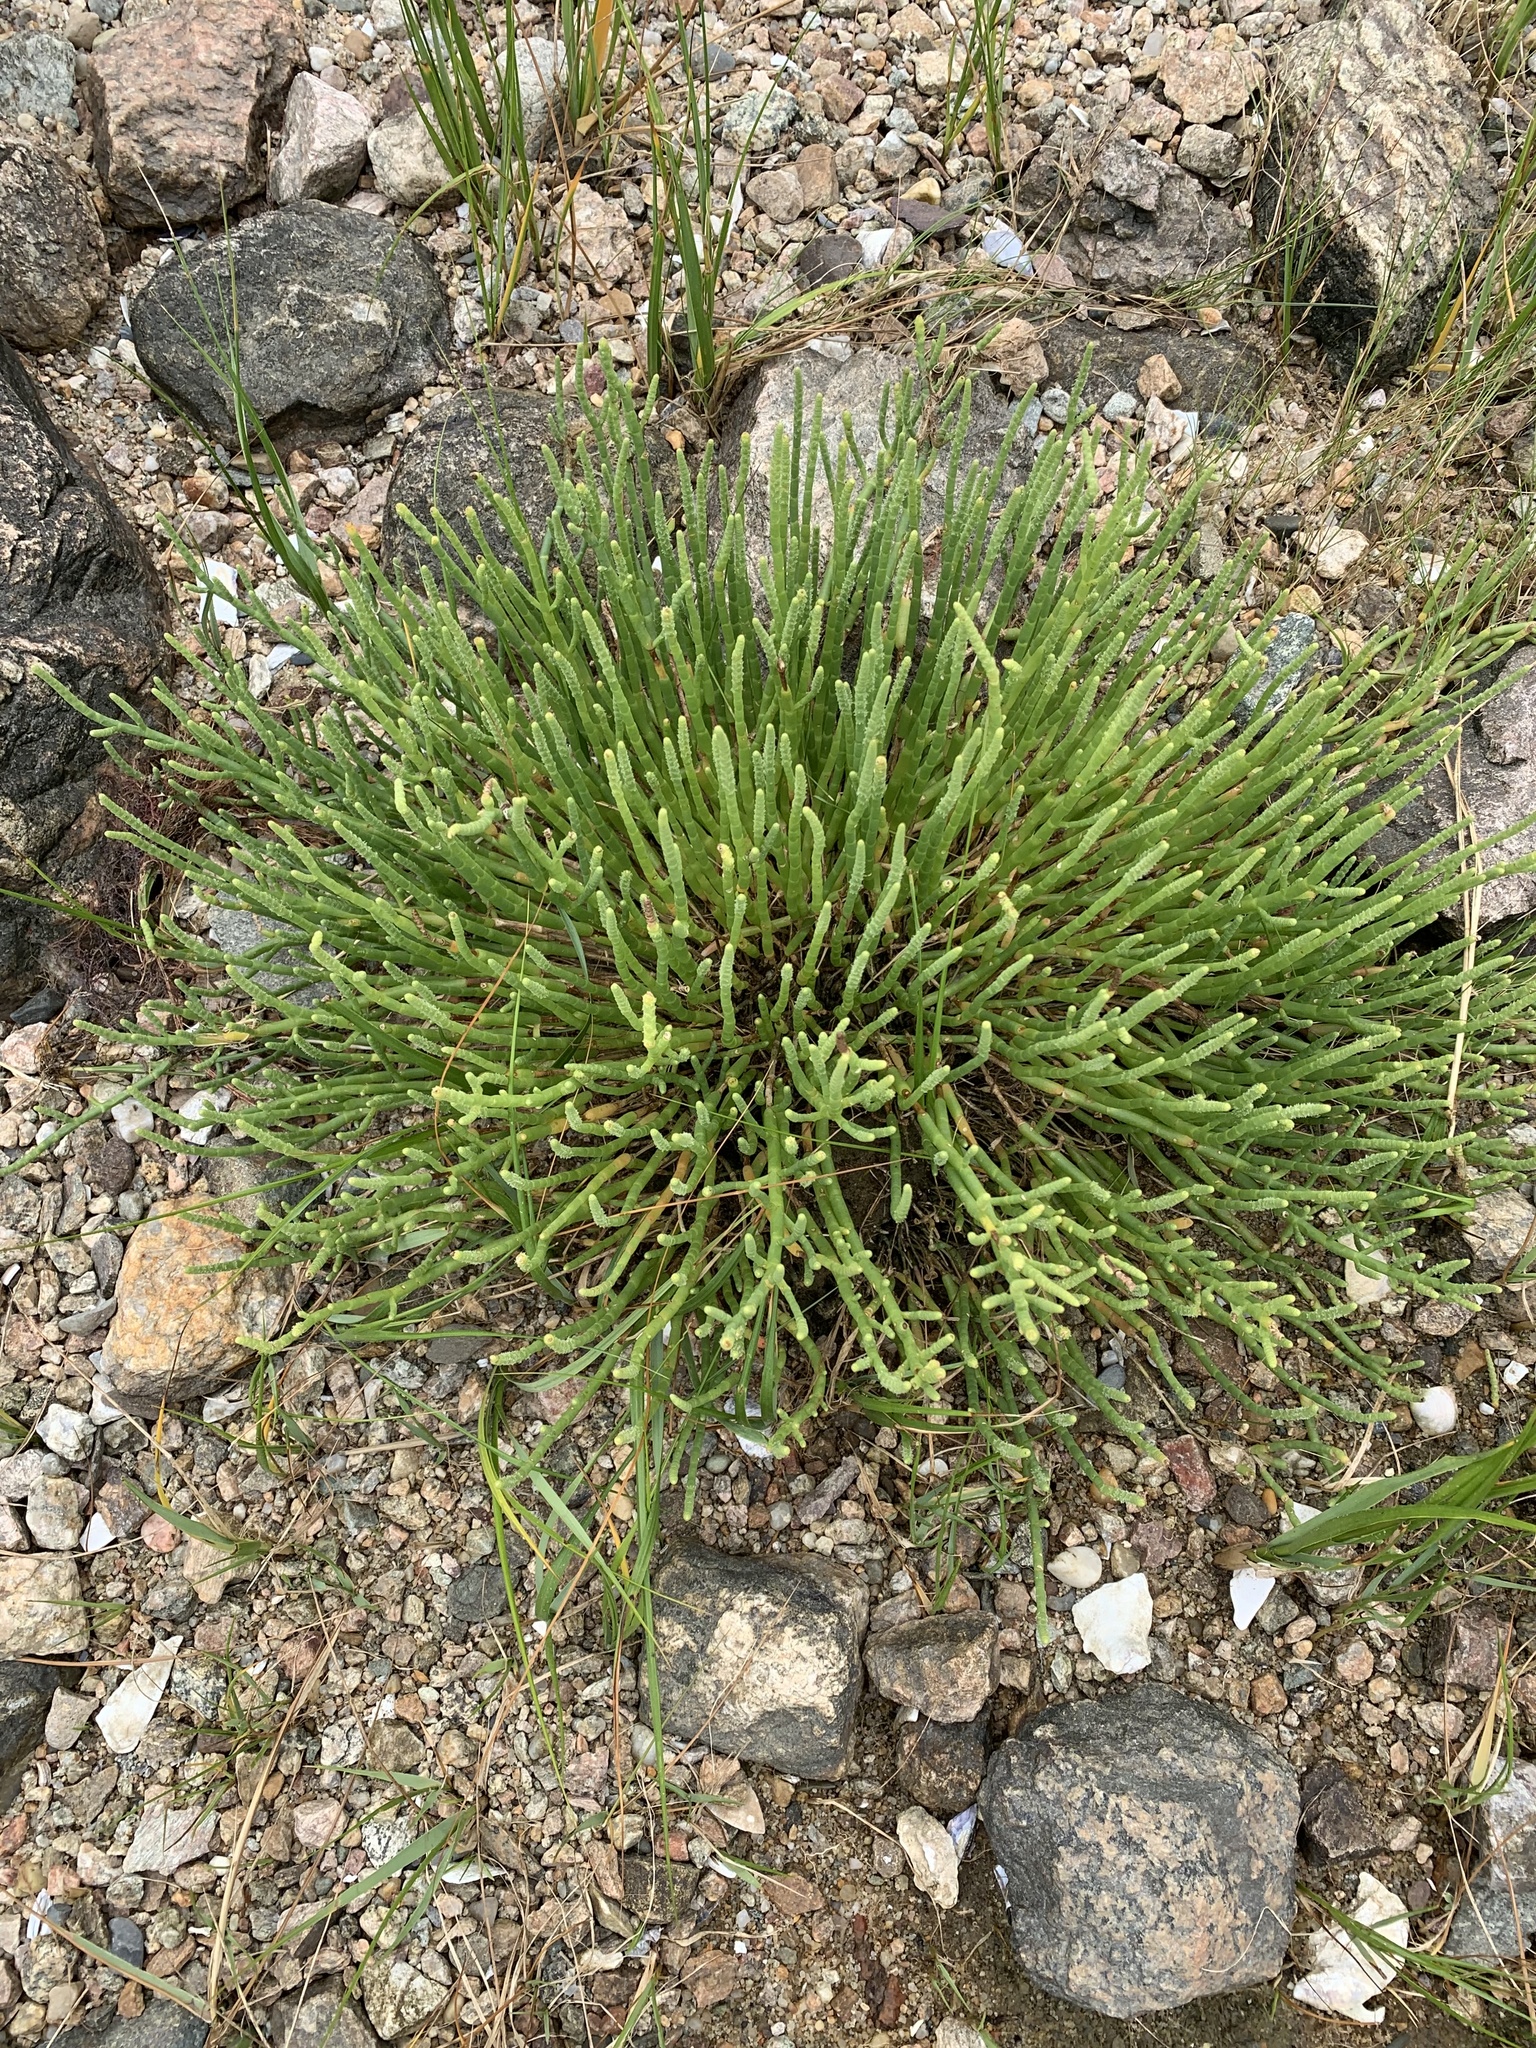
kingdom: Plantae
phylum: Tracheophyta
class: Magnoliopsida
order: Caryophyllales
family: Amaranthaceae
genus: Salicornia
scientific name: Salicornia perennis
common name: Chicken claws
